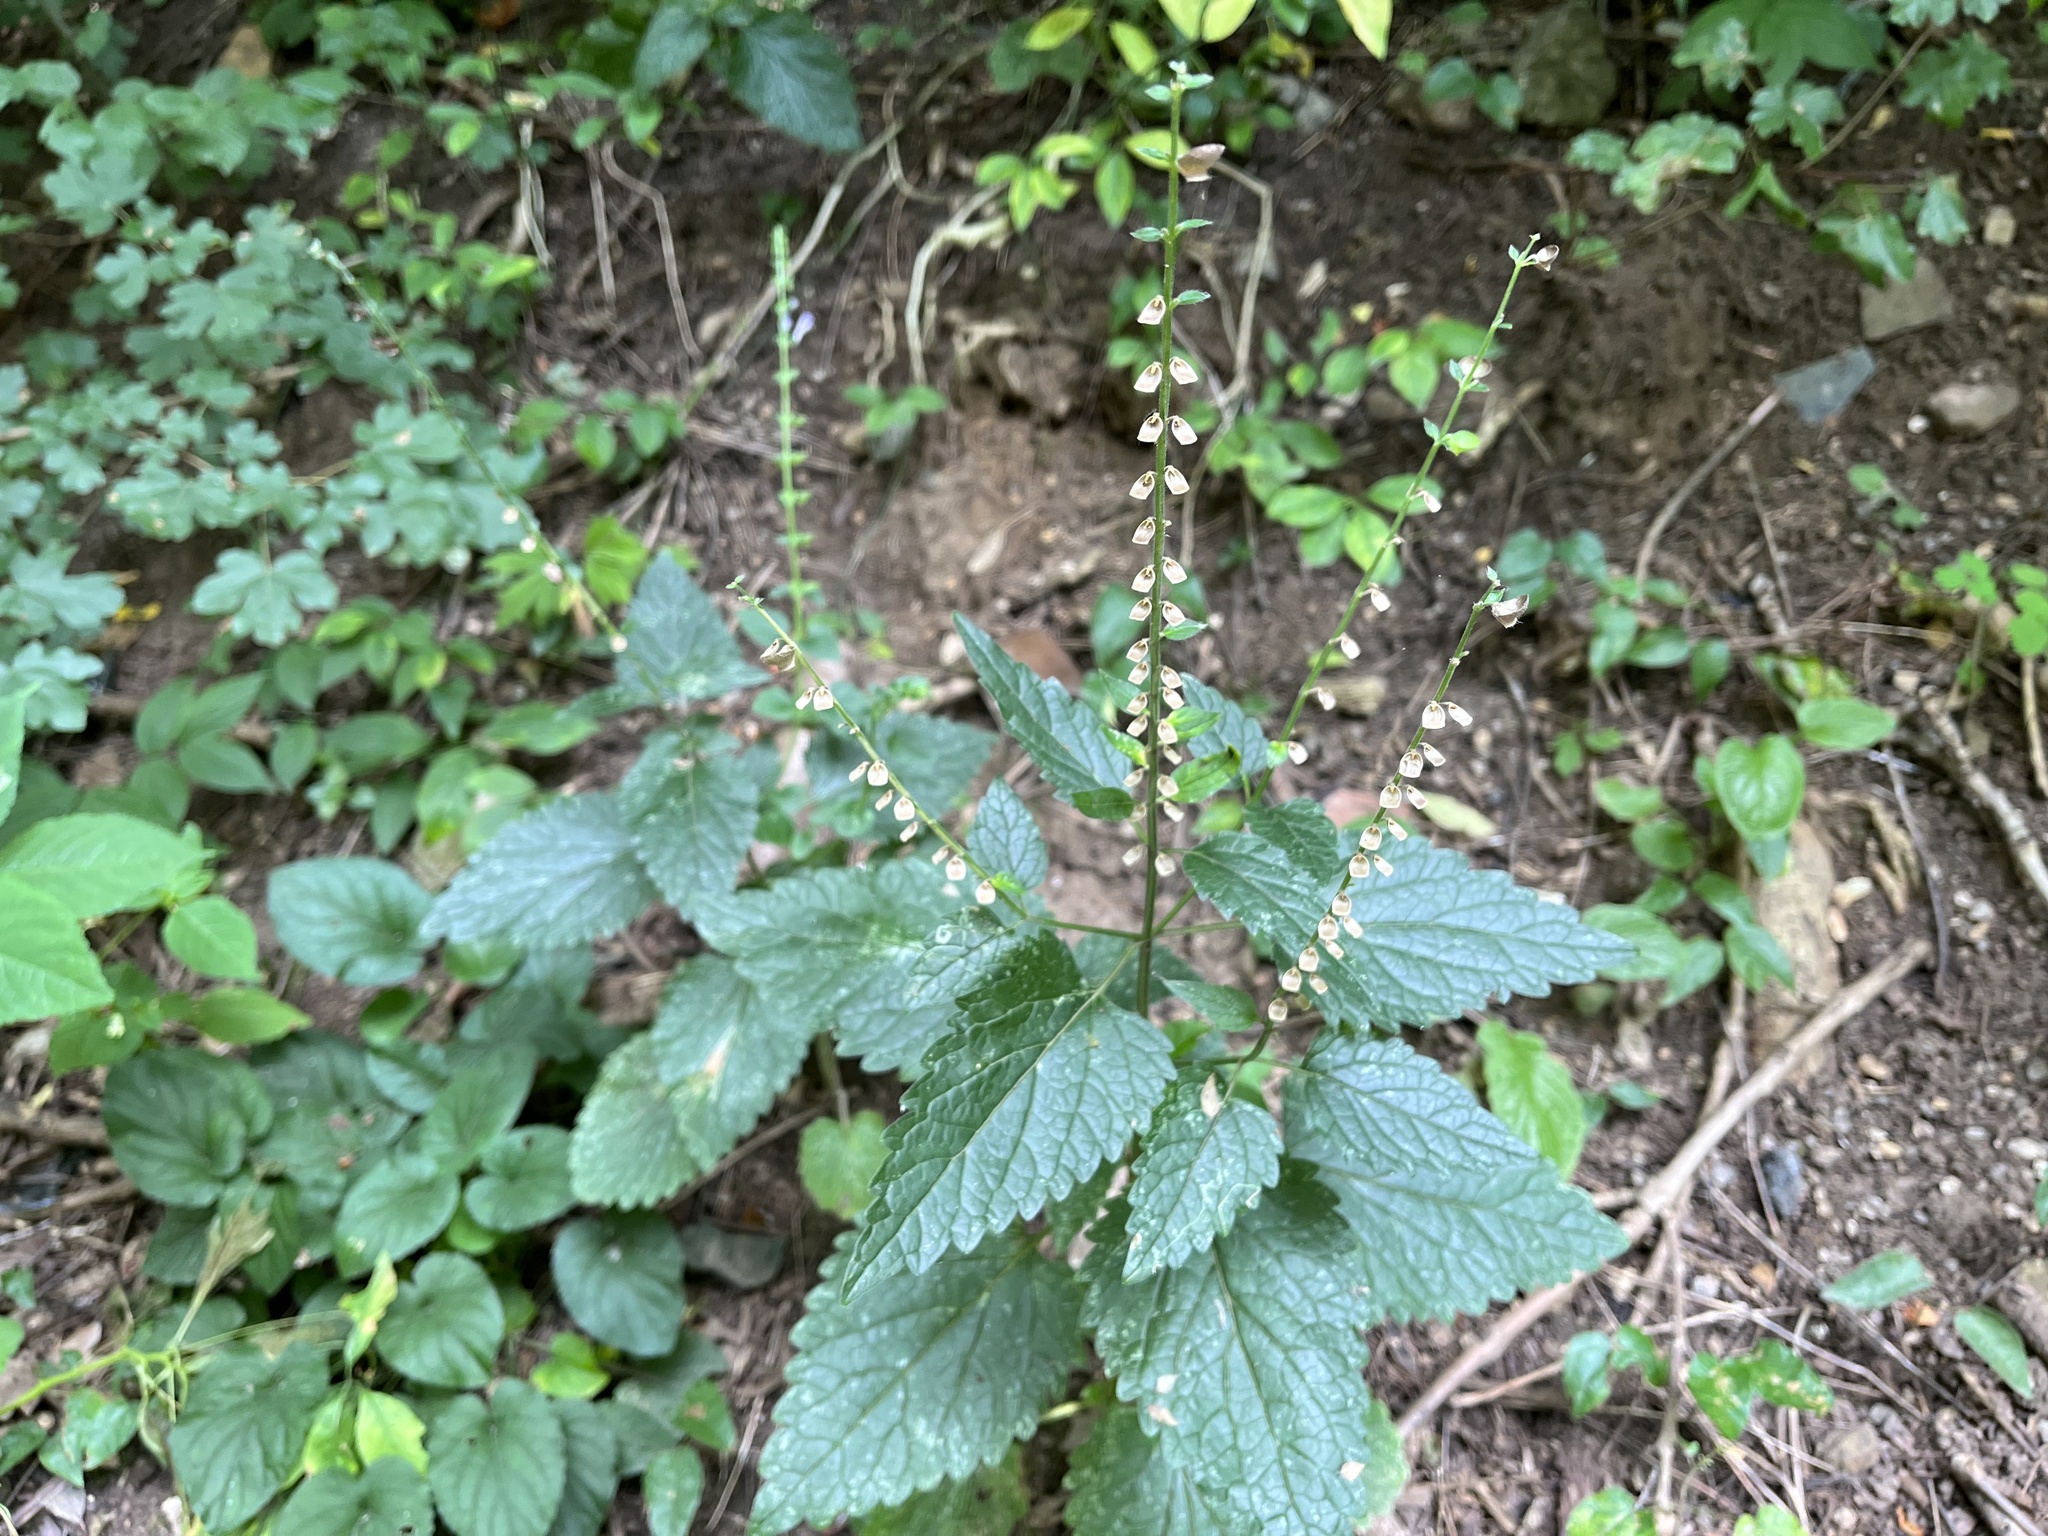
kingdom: Plantae
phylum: Tracheophyta
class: Magnoliopsida
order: Lamiales
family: Lamiaceae
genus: Scutellaria
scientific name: Scutellaria altissima
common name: Somerset skullcap
